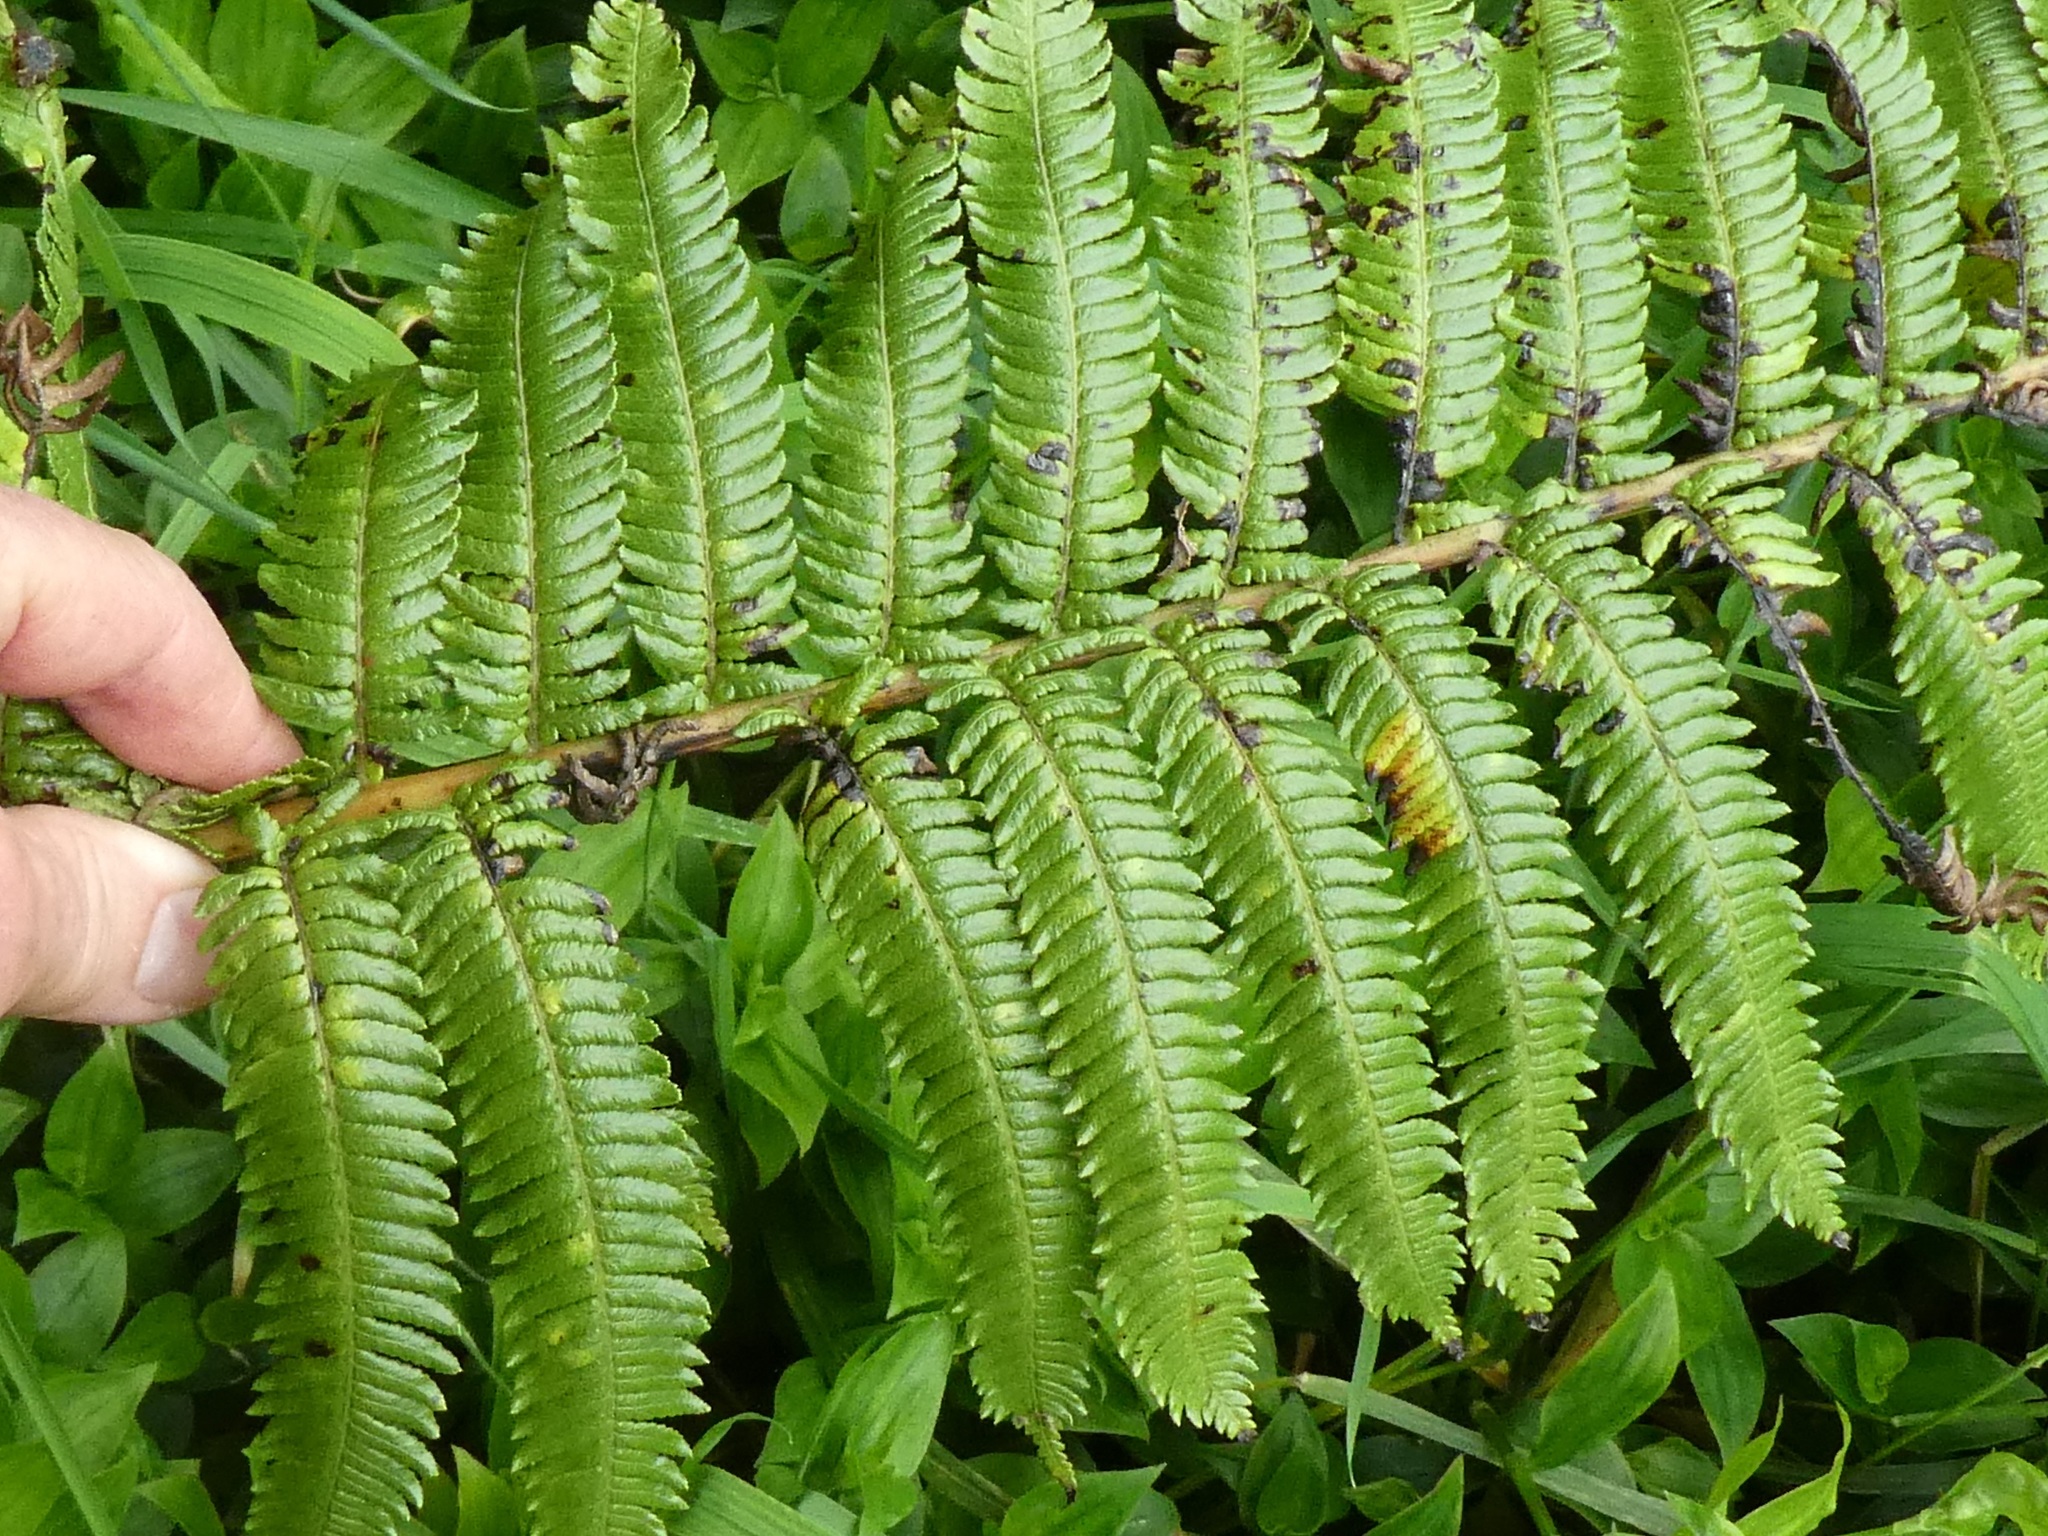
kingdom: Plantae
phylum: Tracheophyta
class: Polypodiopsida
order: Cyatheales
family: Dicksoniaceae
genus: Dicksonia
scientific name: Dicksonia squarrosa
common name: Hard treefern
